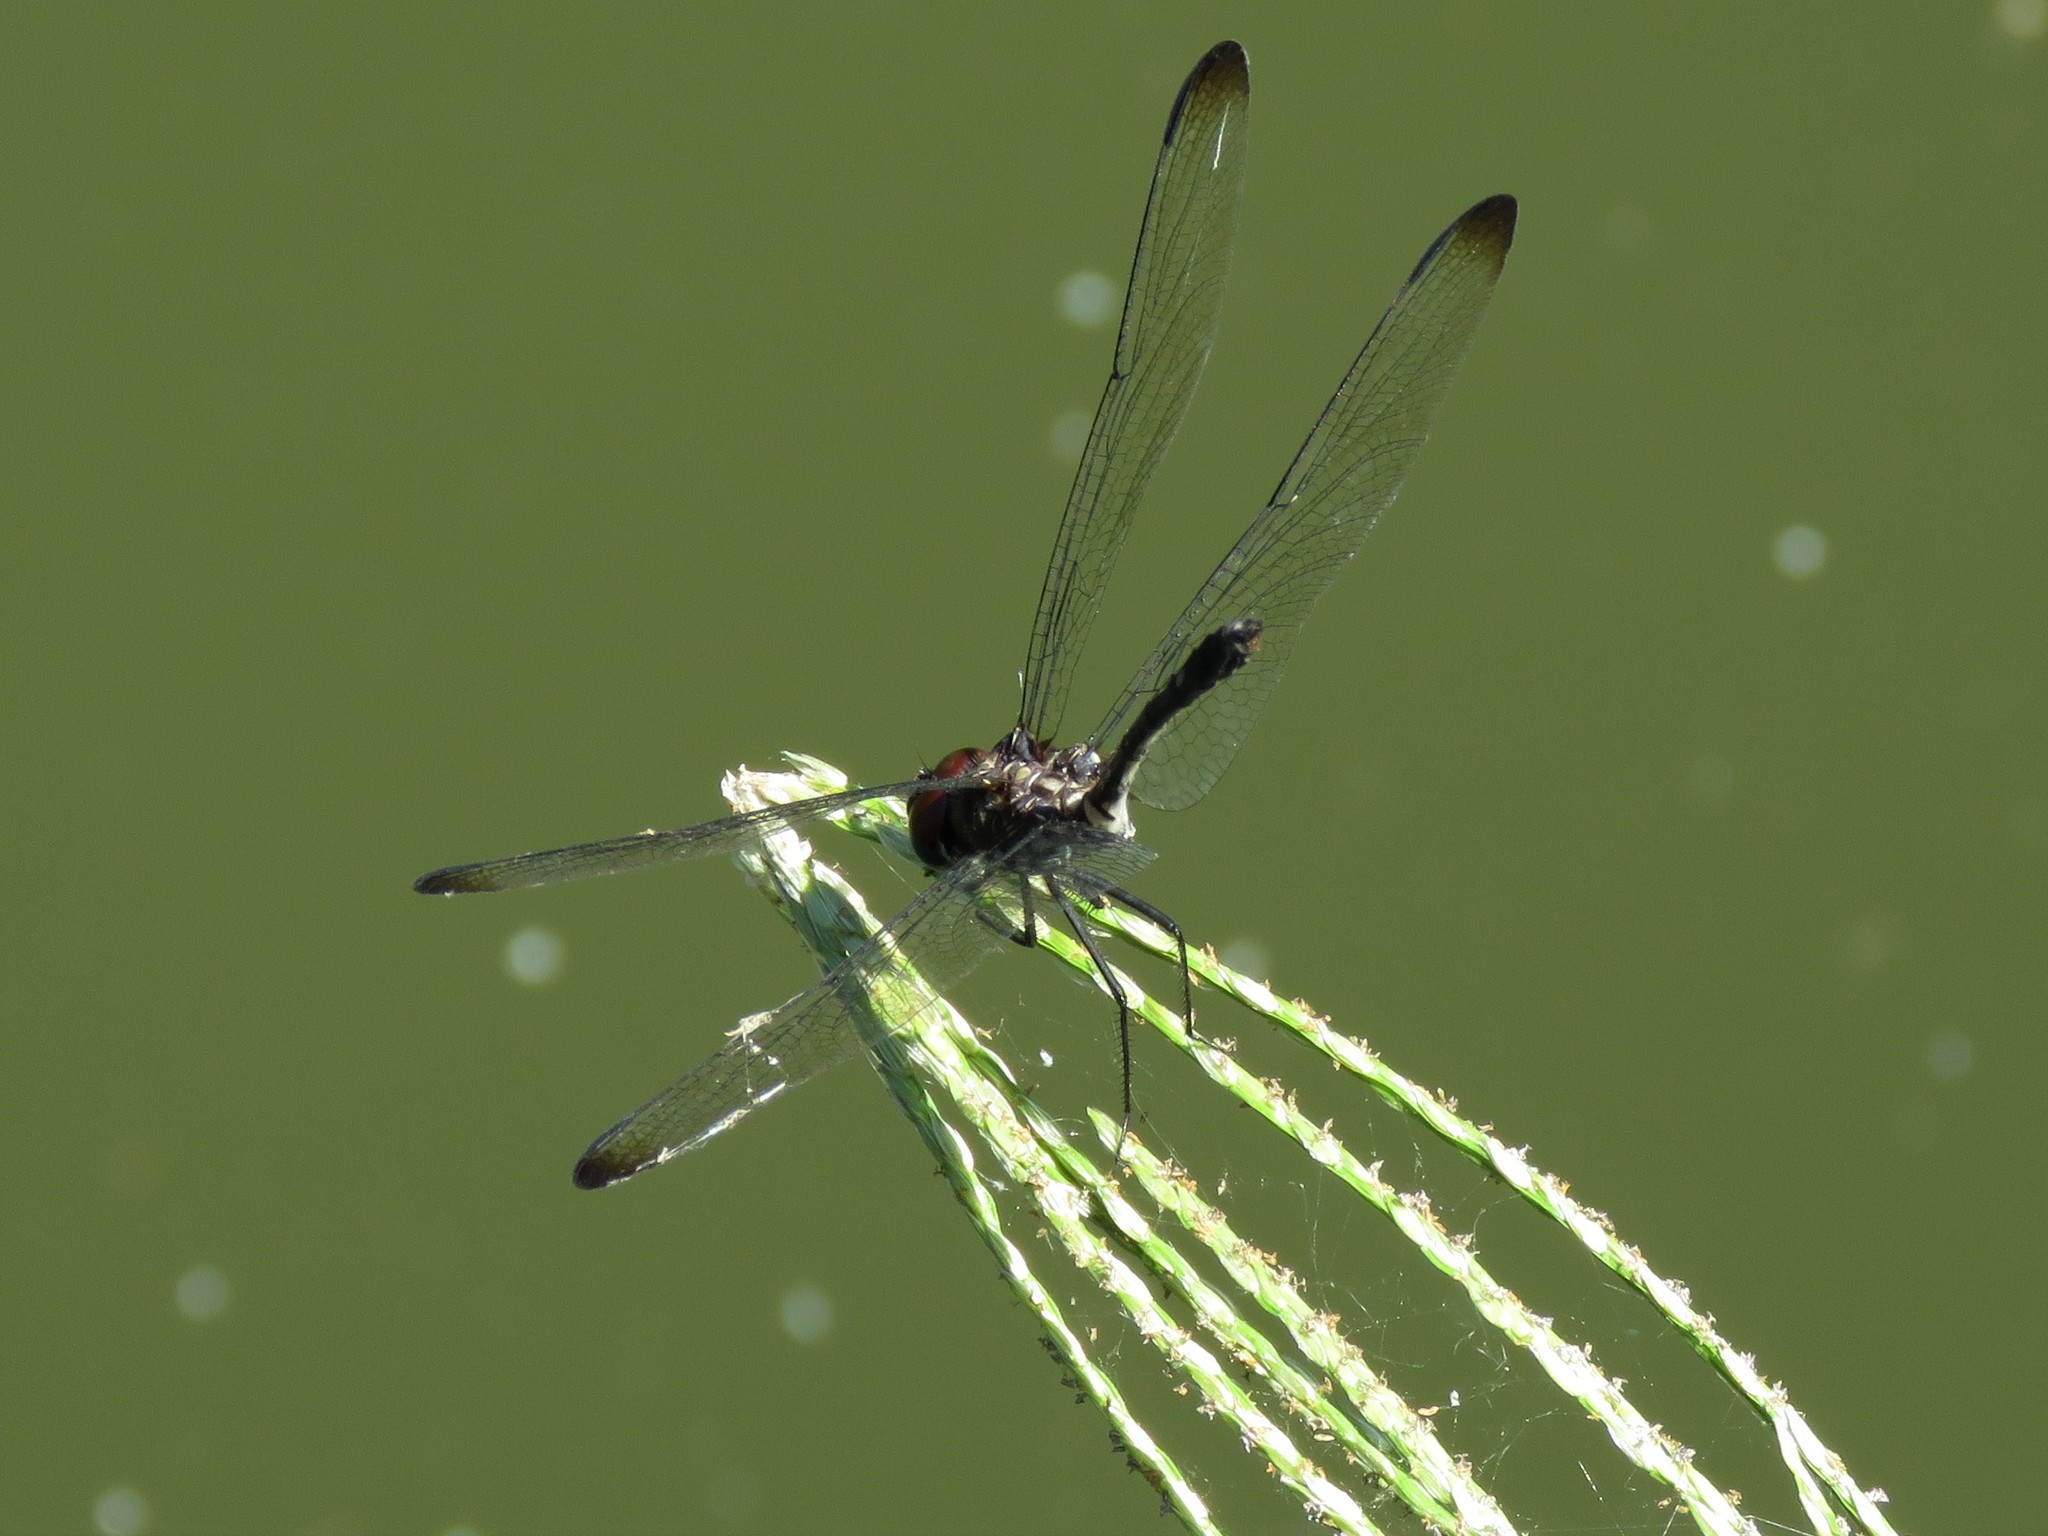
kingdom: Animalia
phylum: Arthropoda
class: Insecta
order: Odonata
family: Libellulidae
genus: Dythemis
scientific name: Dythemis velox
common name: Swift setwing
